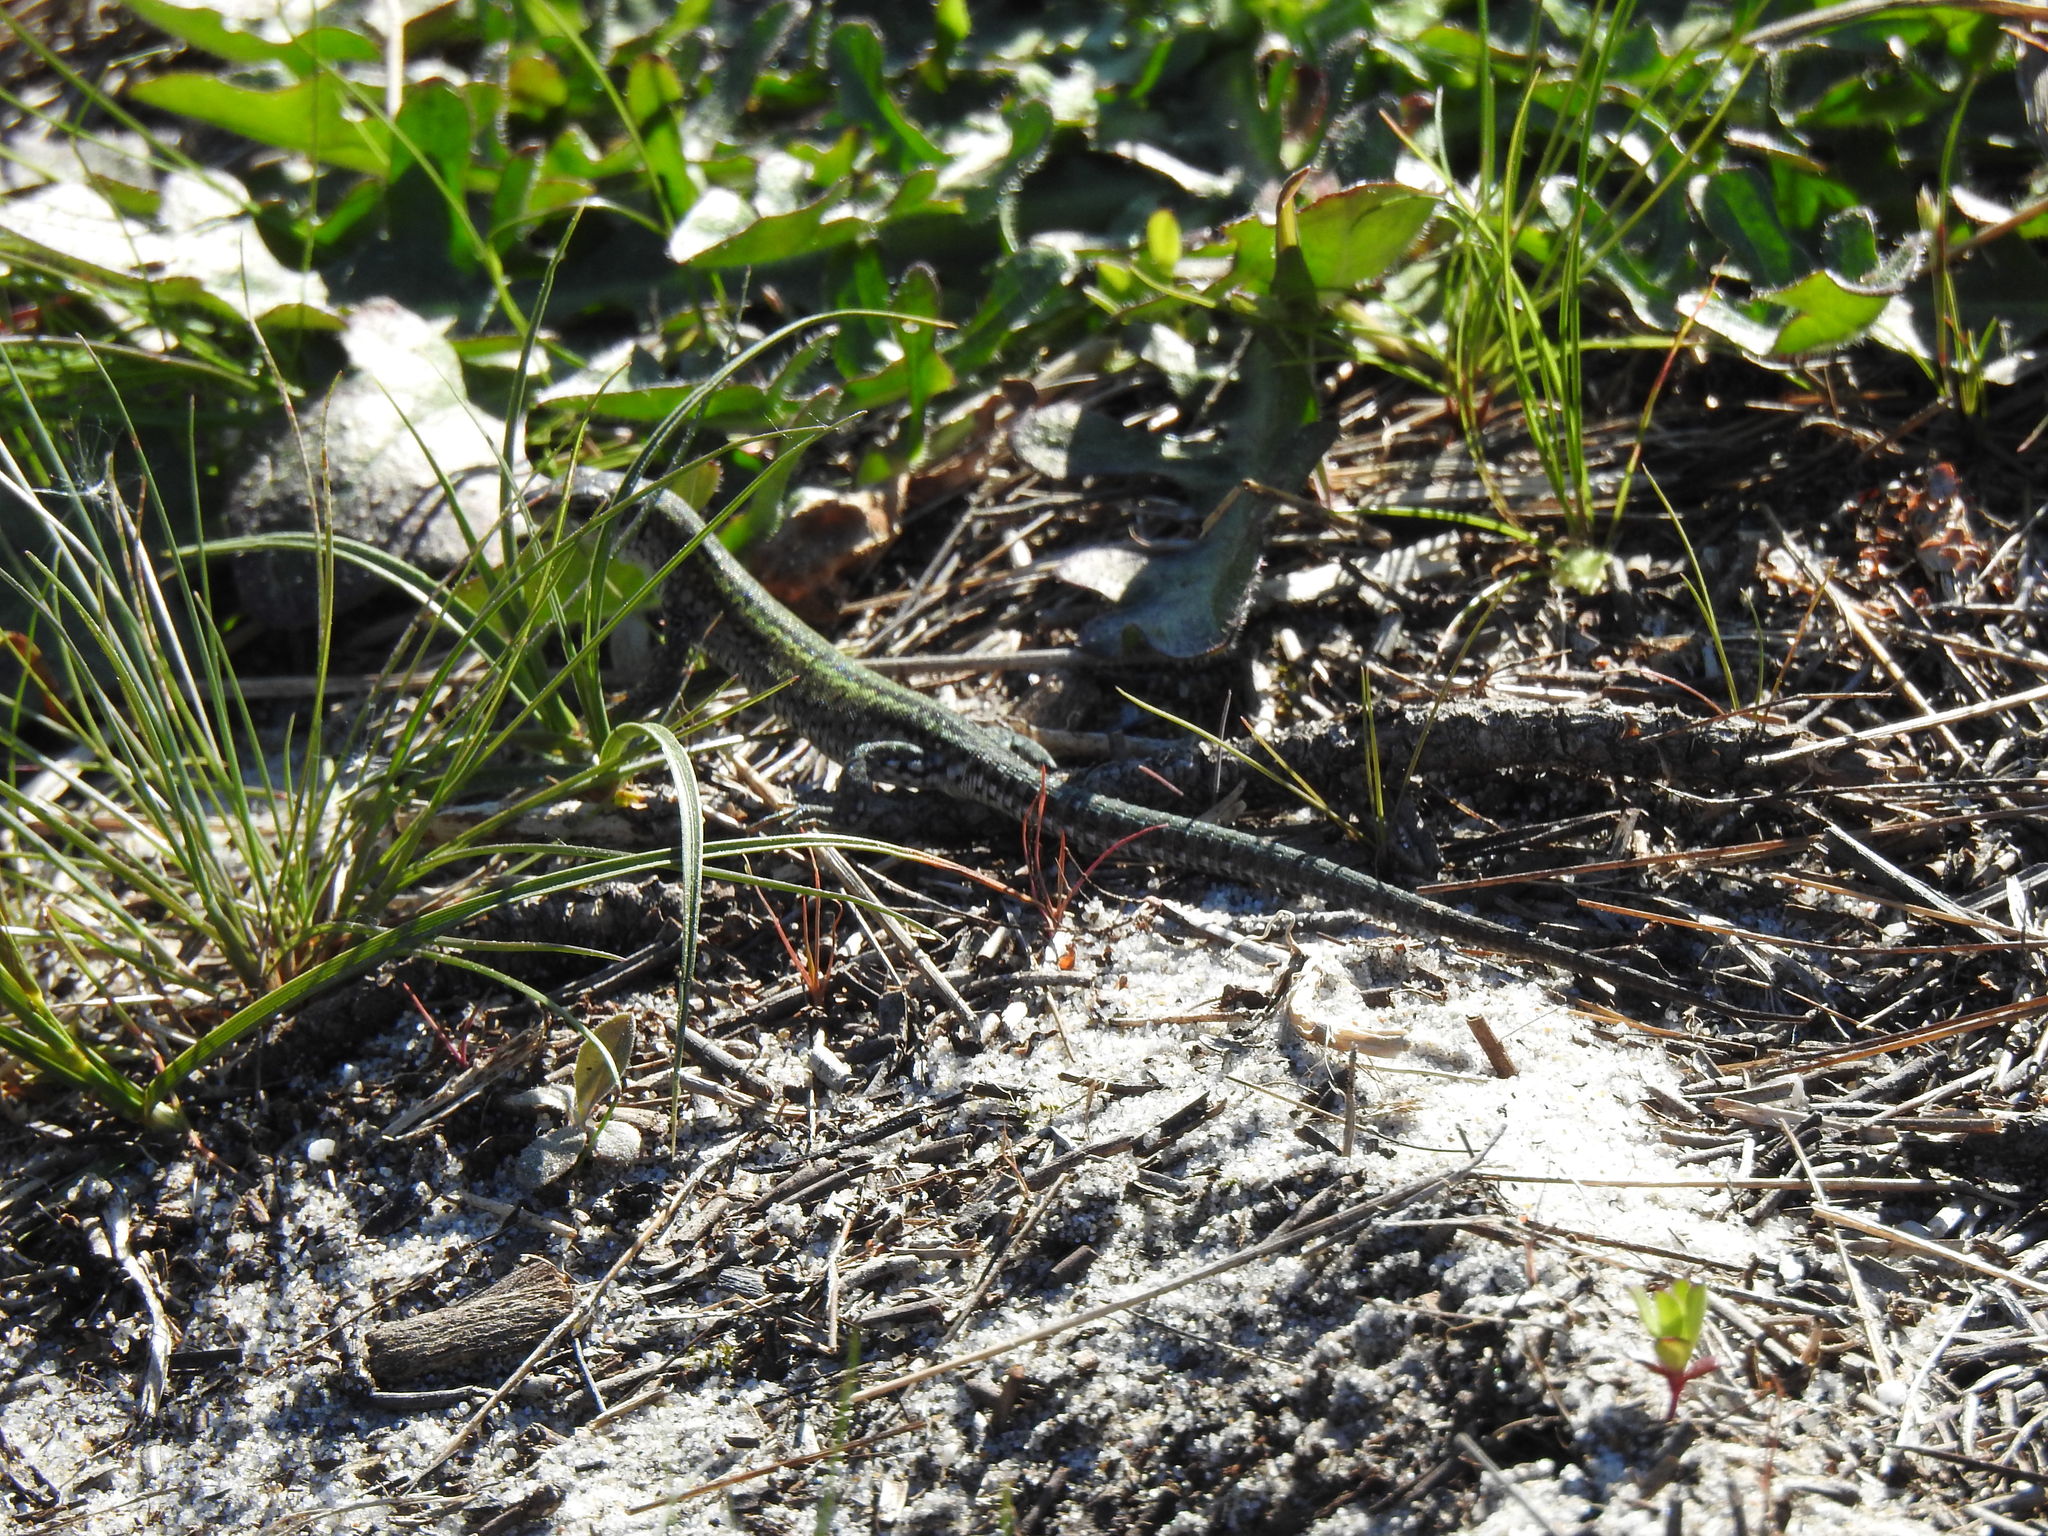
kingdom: Animalia
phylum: Chordata
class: Squamata
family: Lacertidae
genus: Podarcis
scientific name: Podarcis carbonelli
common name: Carbonelli's wall lizard
